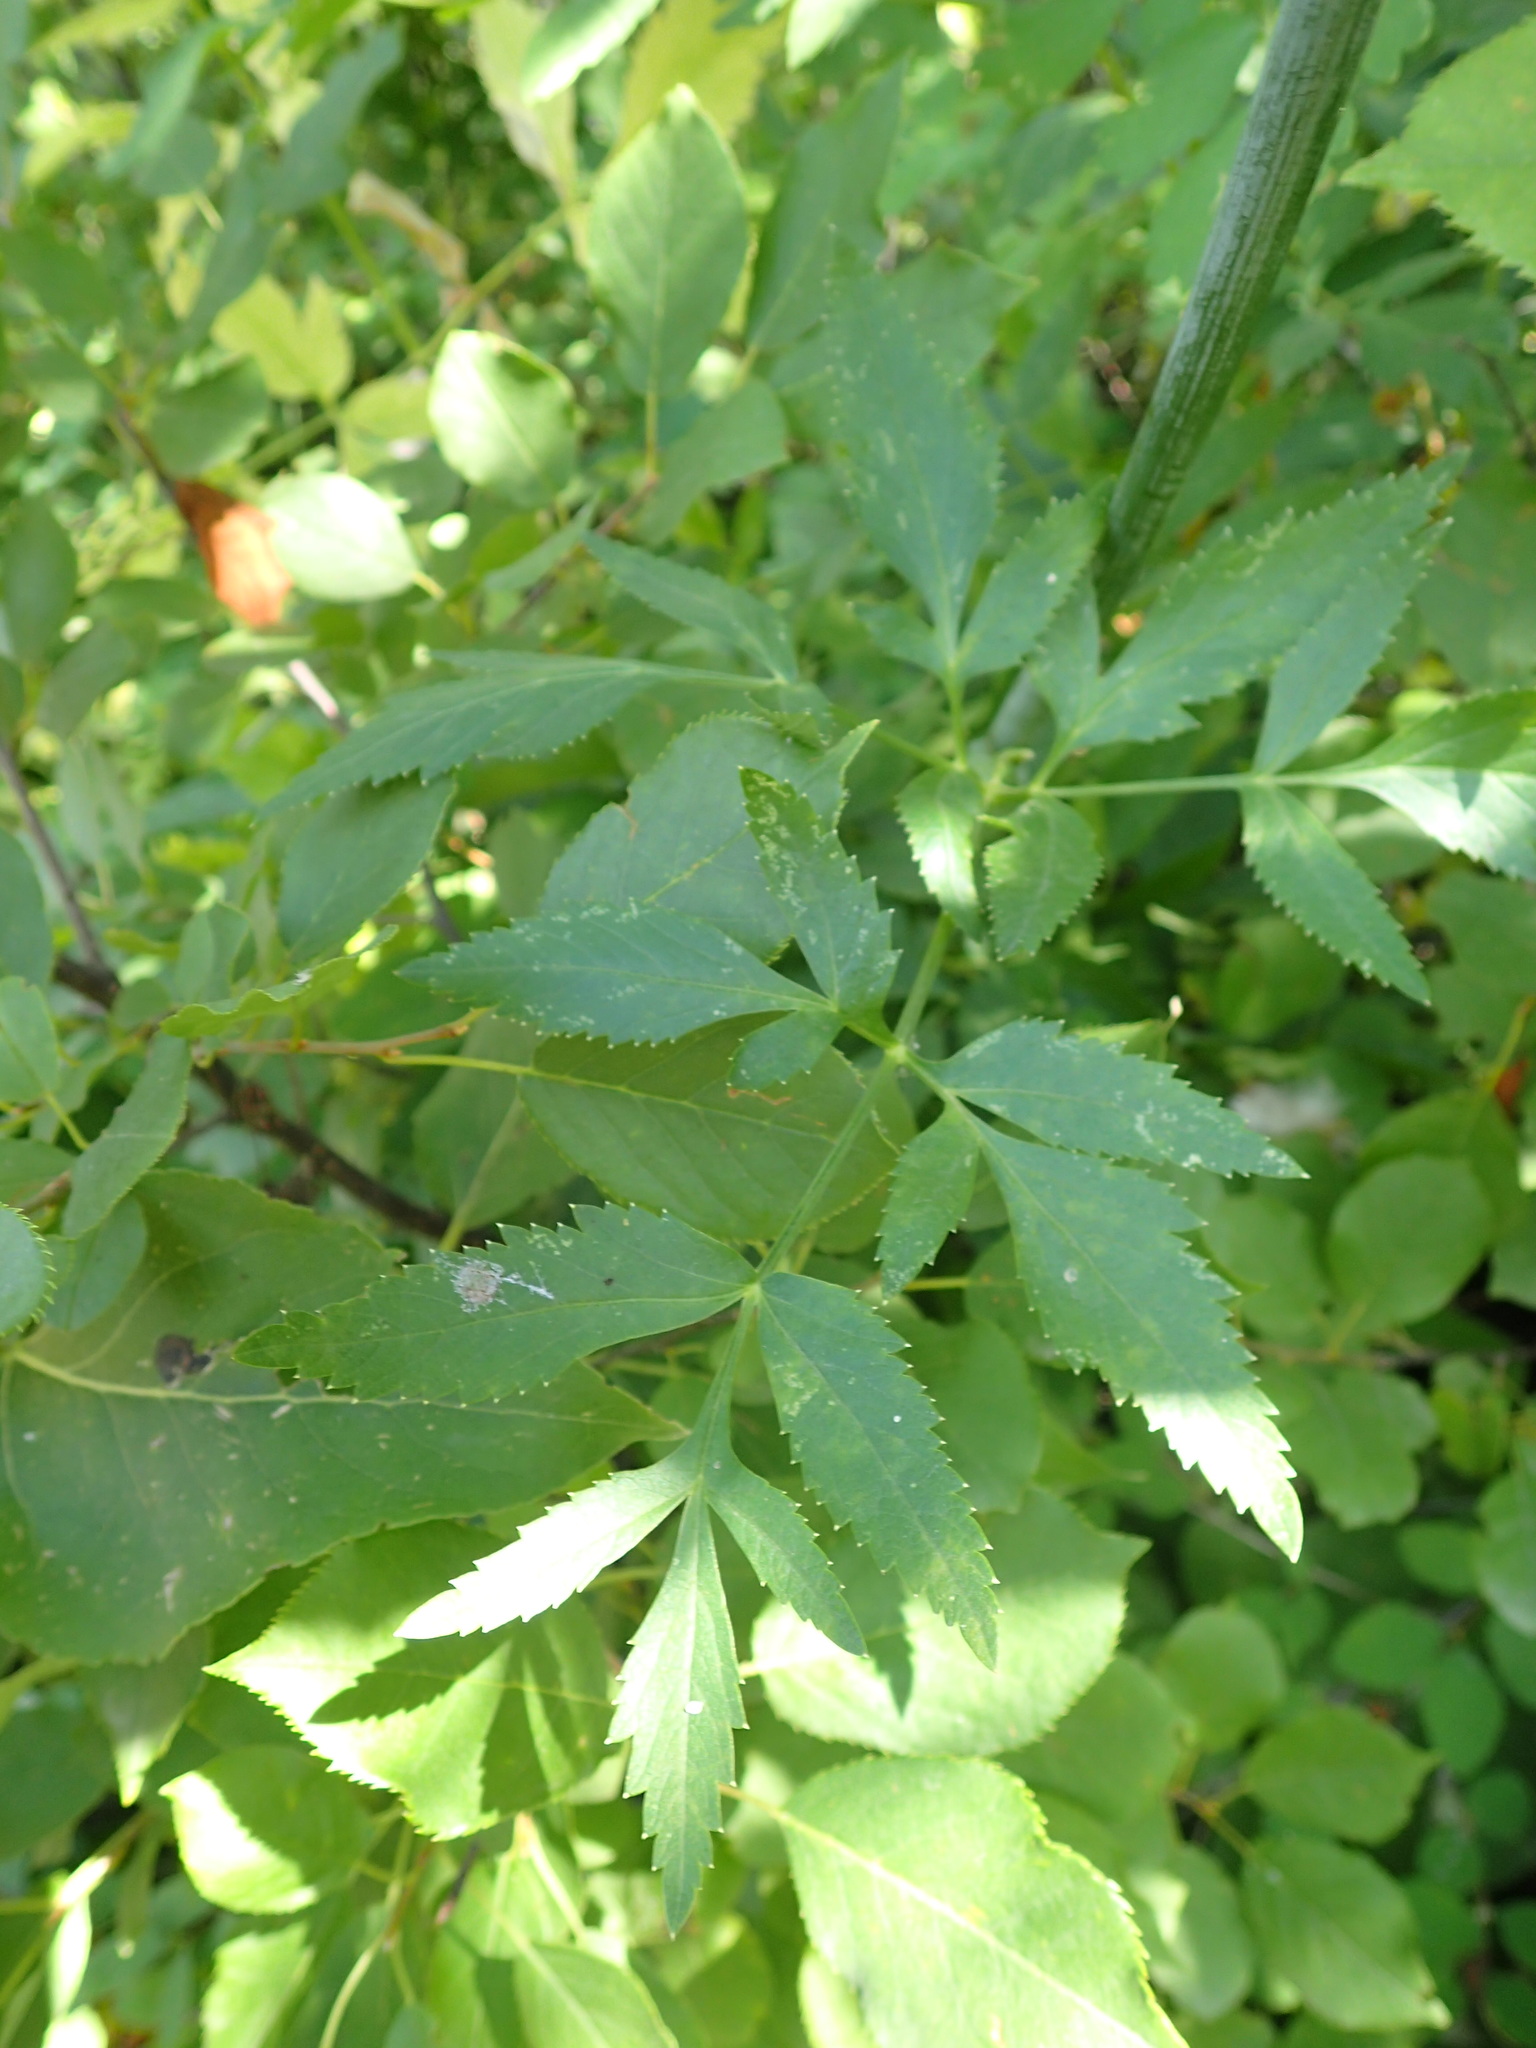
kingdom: Plantae
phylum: Tracheophyta
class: Magnoliopsida
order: Apiales
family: Apiaceae
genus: Angelica
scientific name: Angelica arguta
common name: Lyall's angelica
